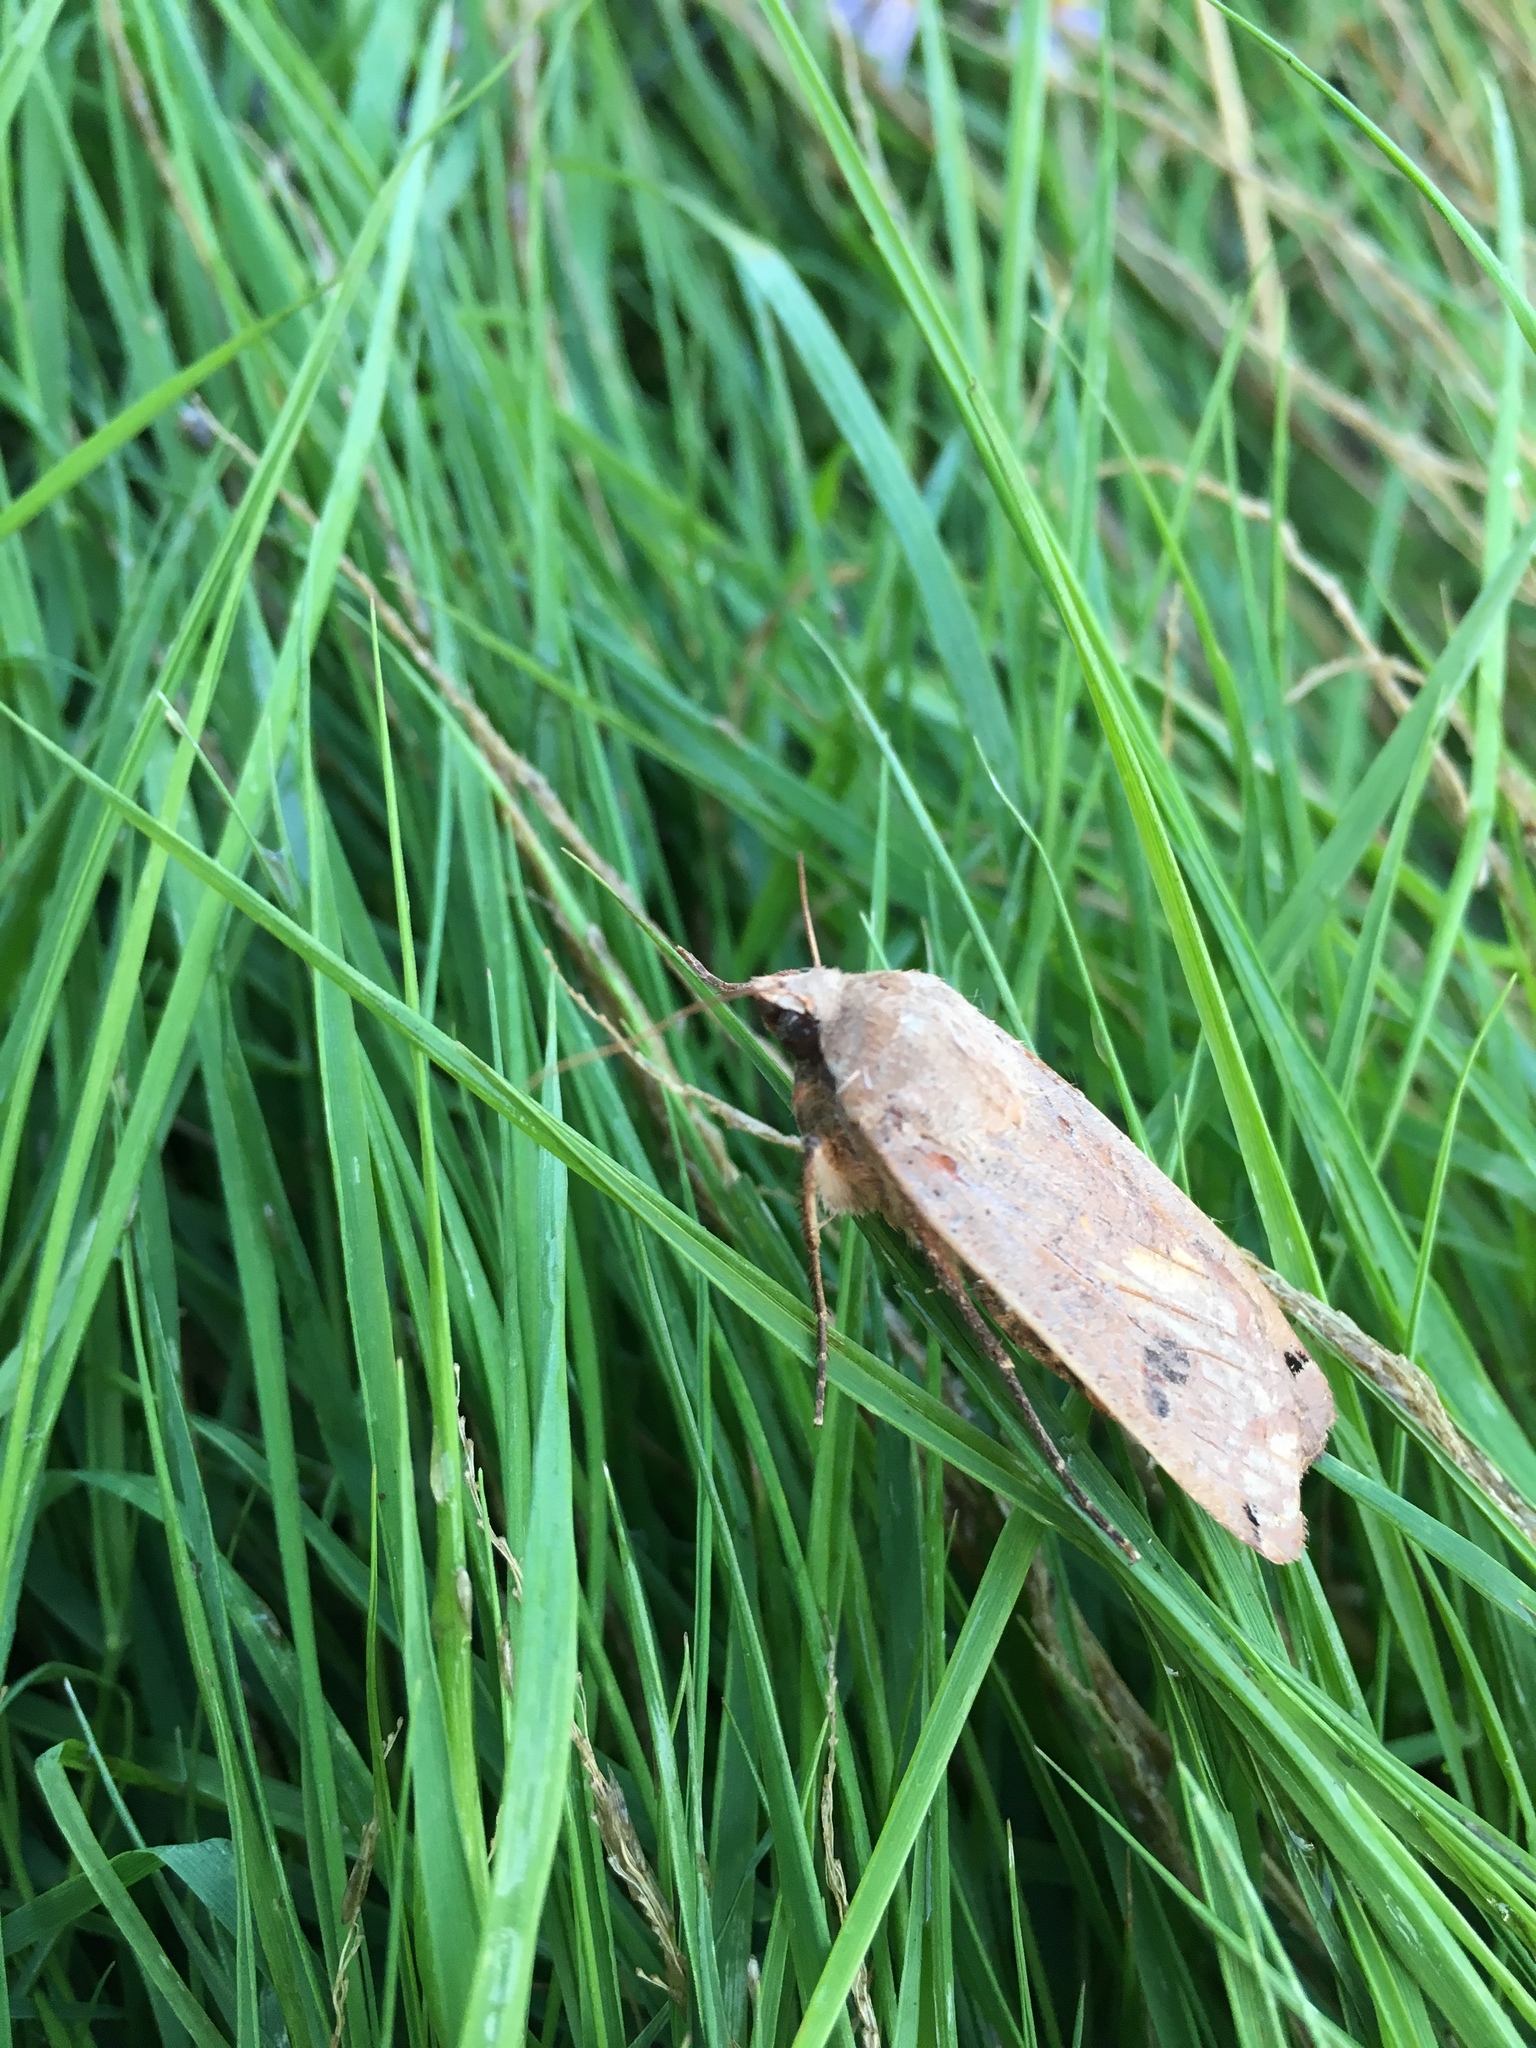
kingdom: Animalia
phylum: Arthropoda
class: Insecta
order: Lepidoptera
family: Noctuidae
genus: Noctua
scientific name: Noctua pronuba
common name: Large yellow underwing
